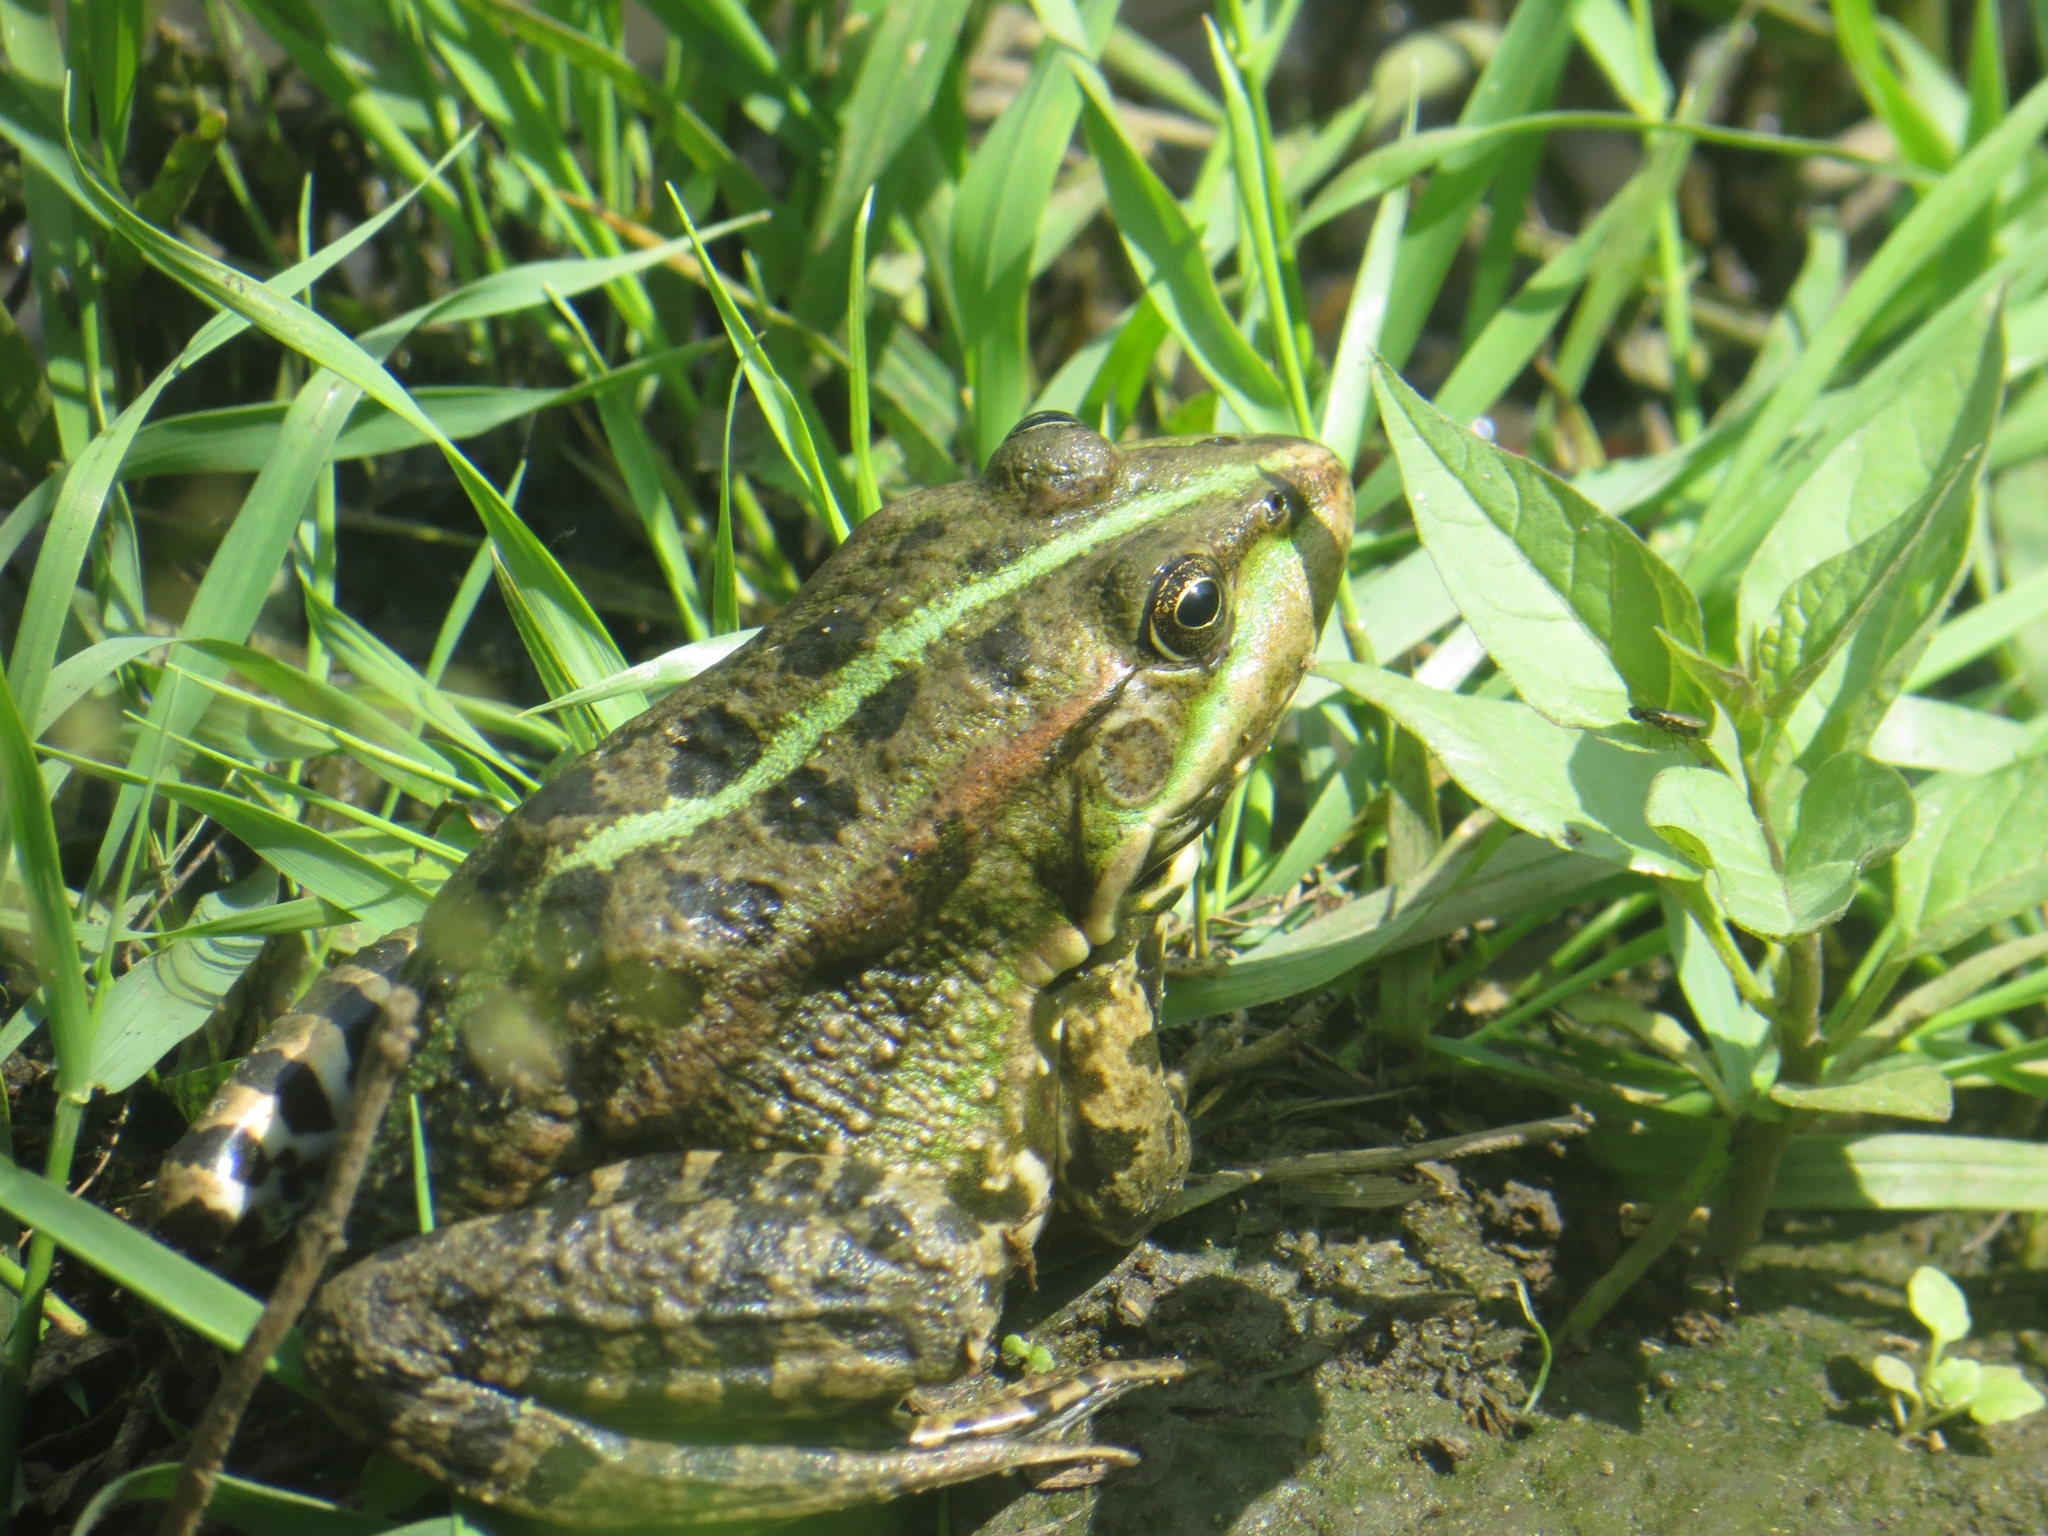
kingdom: Animalia
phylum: Chordata
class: Amphibia
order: Anura
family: Ranidae
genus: Pelophylax
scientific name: Pelophylax ridibundus
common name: Marsh frog
